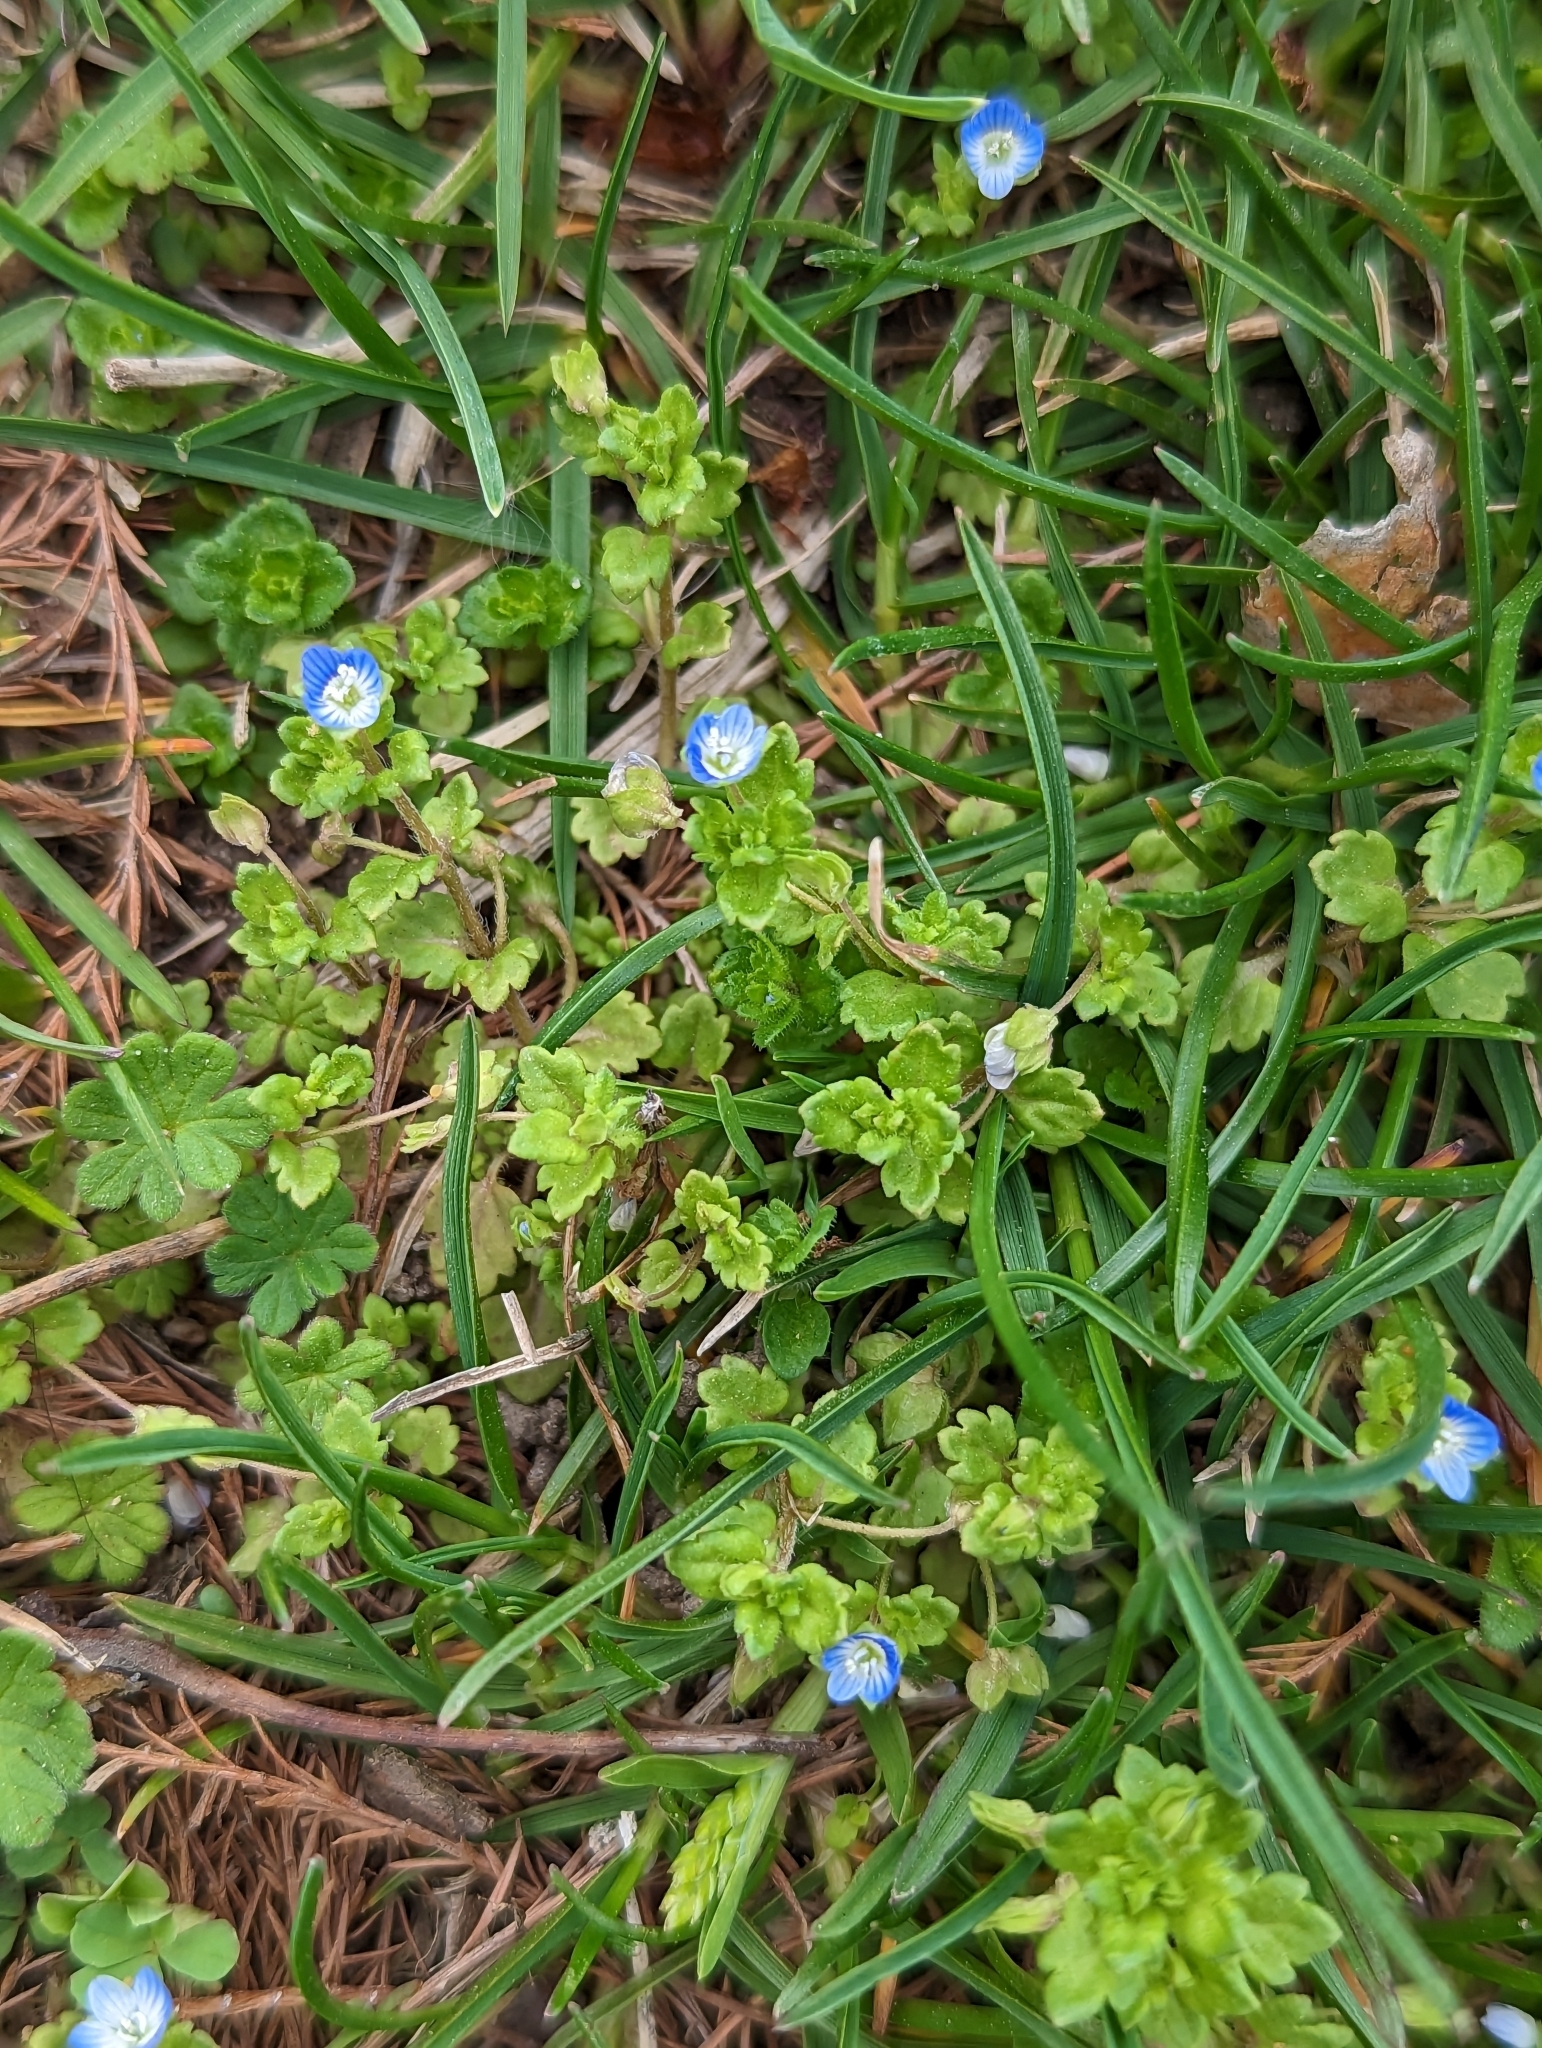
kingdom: Plantae
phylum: Tracheophyta
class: Magnoliopsida
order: Lamiales
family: Plantaginaceae
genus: Veronica
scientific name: Veronica persica
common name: Common field-speedwell
